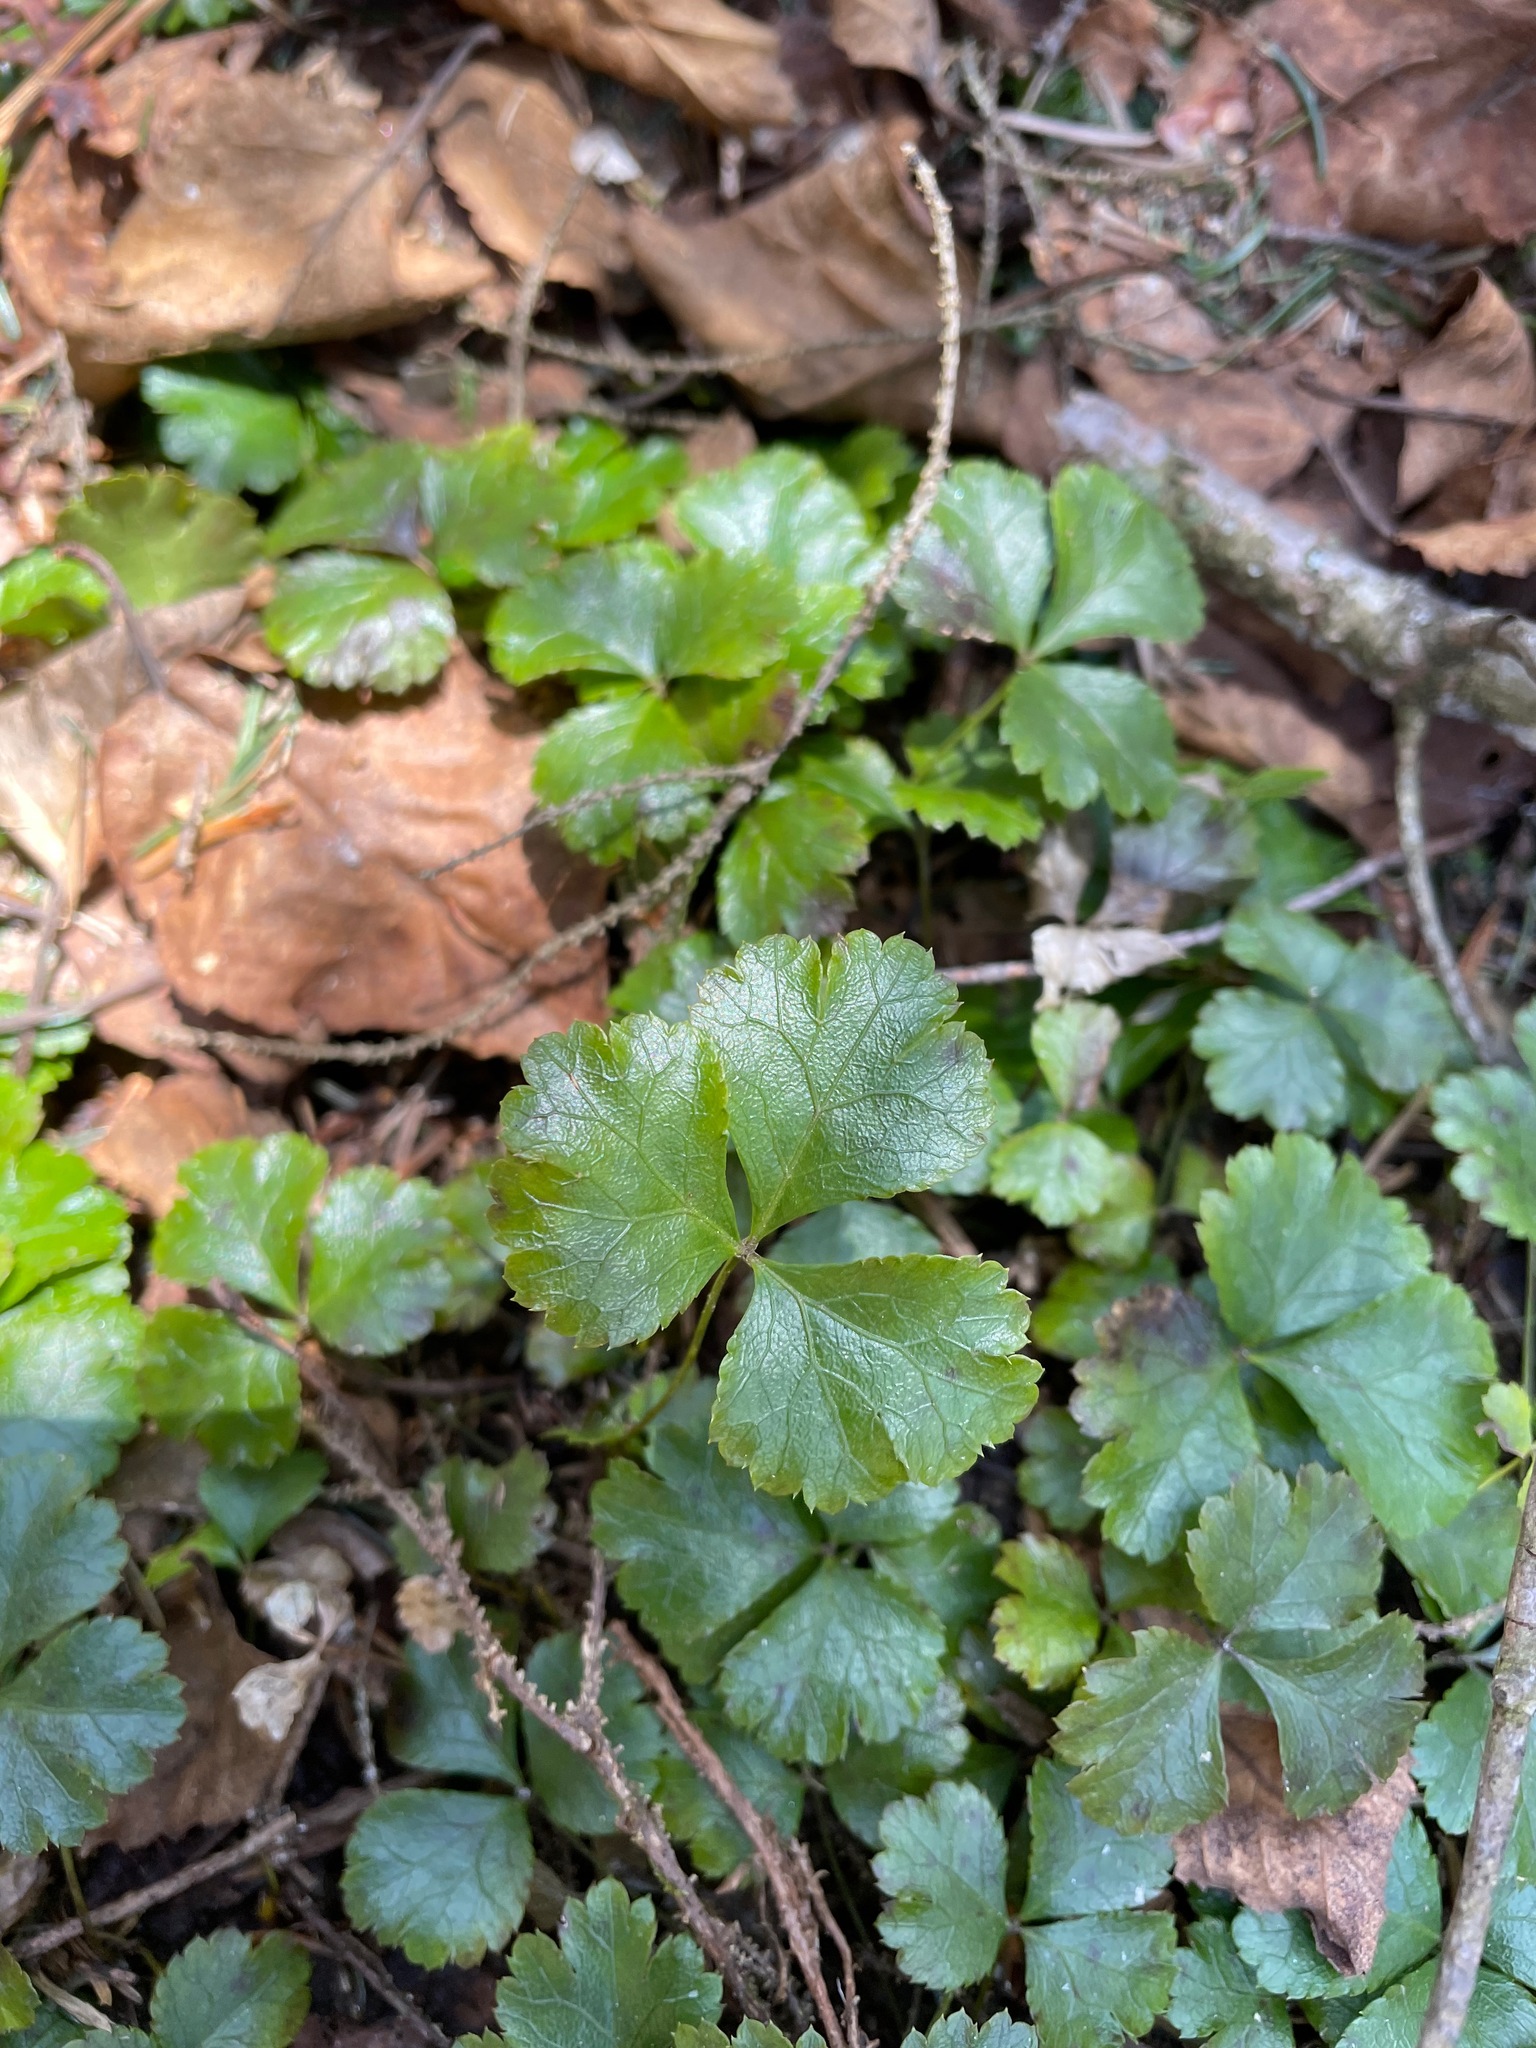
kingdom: Plantae
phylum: Tracheophyta
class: Magnoliopsida
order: Ranunculales
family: Ranunculaceae
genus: Coptis
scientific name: Coptis trifolia
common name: Canker-root
